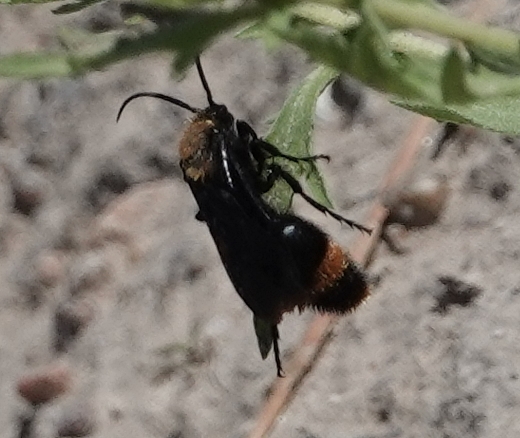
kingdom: Animalia
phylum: Arthropoda
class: Insecta
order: Hymenoptera
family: Mutillidae
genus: Dasymutilla
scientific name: Dasymutilla occidentalis
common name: Common eastern velvet ant
